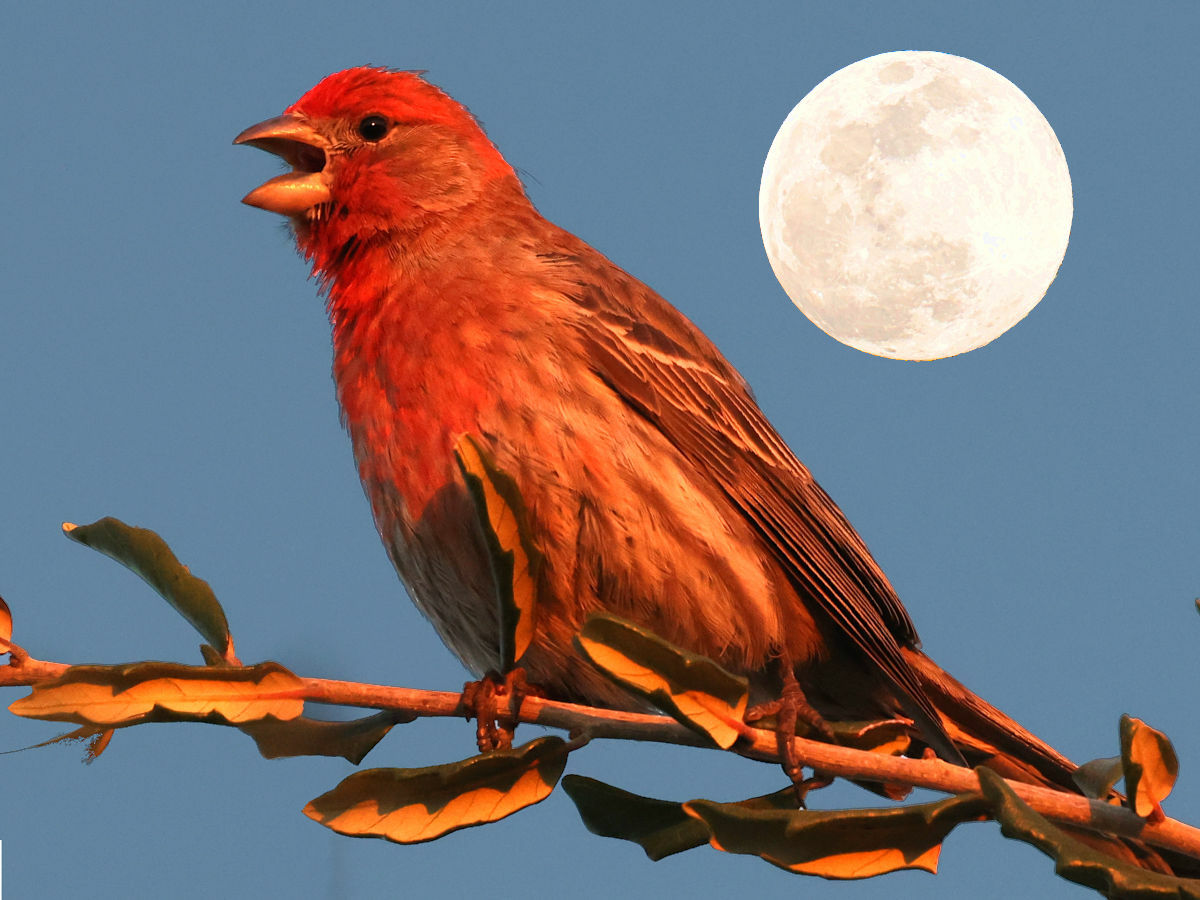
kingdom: Animalia
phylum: Chordata
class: Aves
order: Passeriformes
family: Fringillidae
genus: Haemorhous
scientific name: Haemorhous mexicanus
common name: House finch
